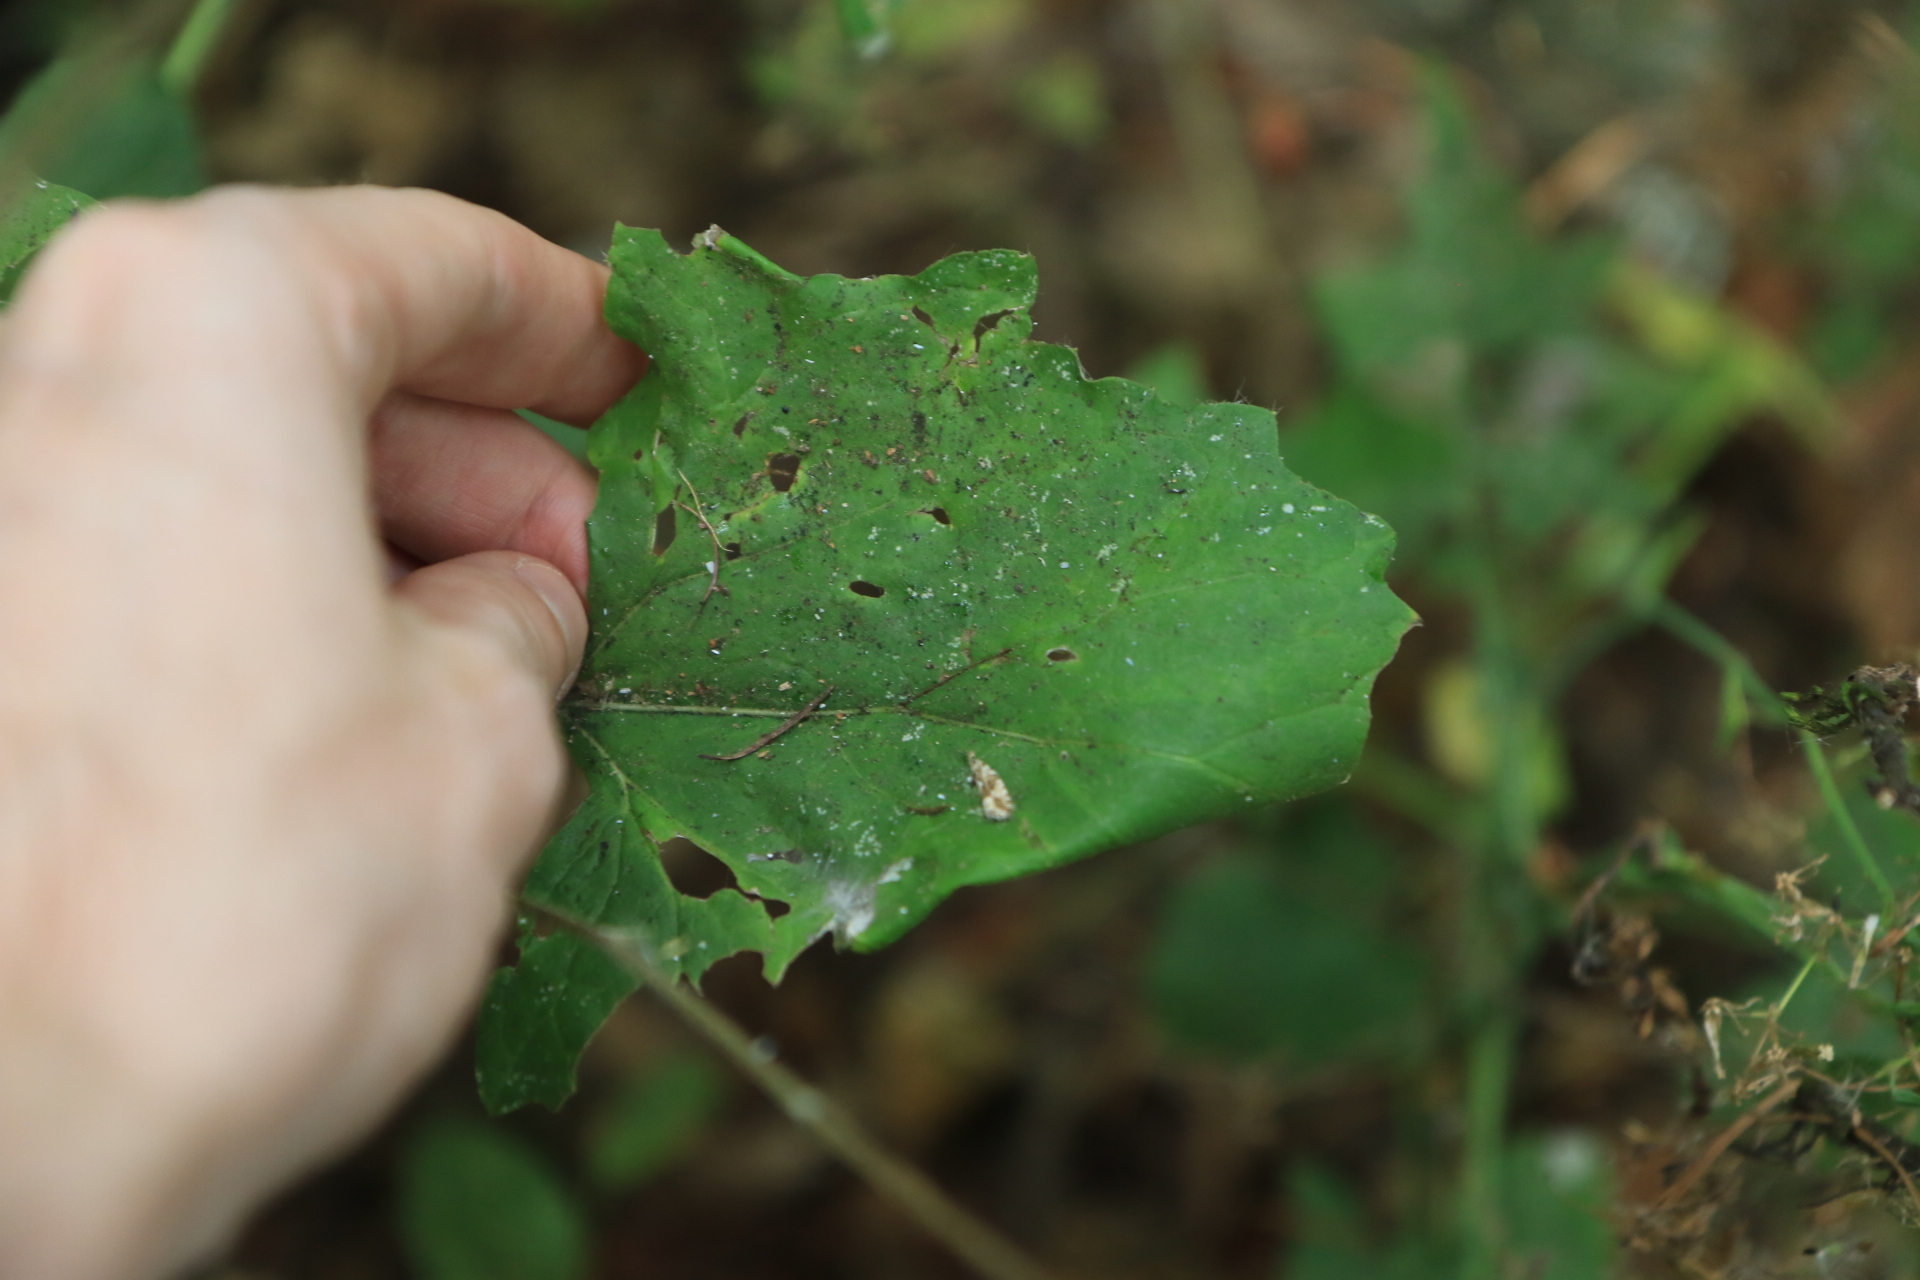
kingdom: Plantae
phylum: Tracheophyta
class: Magnoliopsida
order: Asterales
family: Asteraceae
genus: Adenocaulon
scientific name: Adenocaulon bicolor
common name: Trailplant
